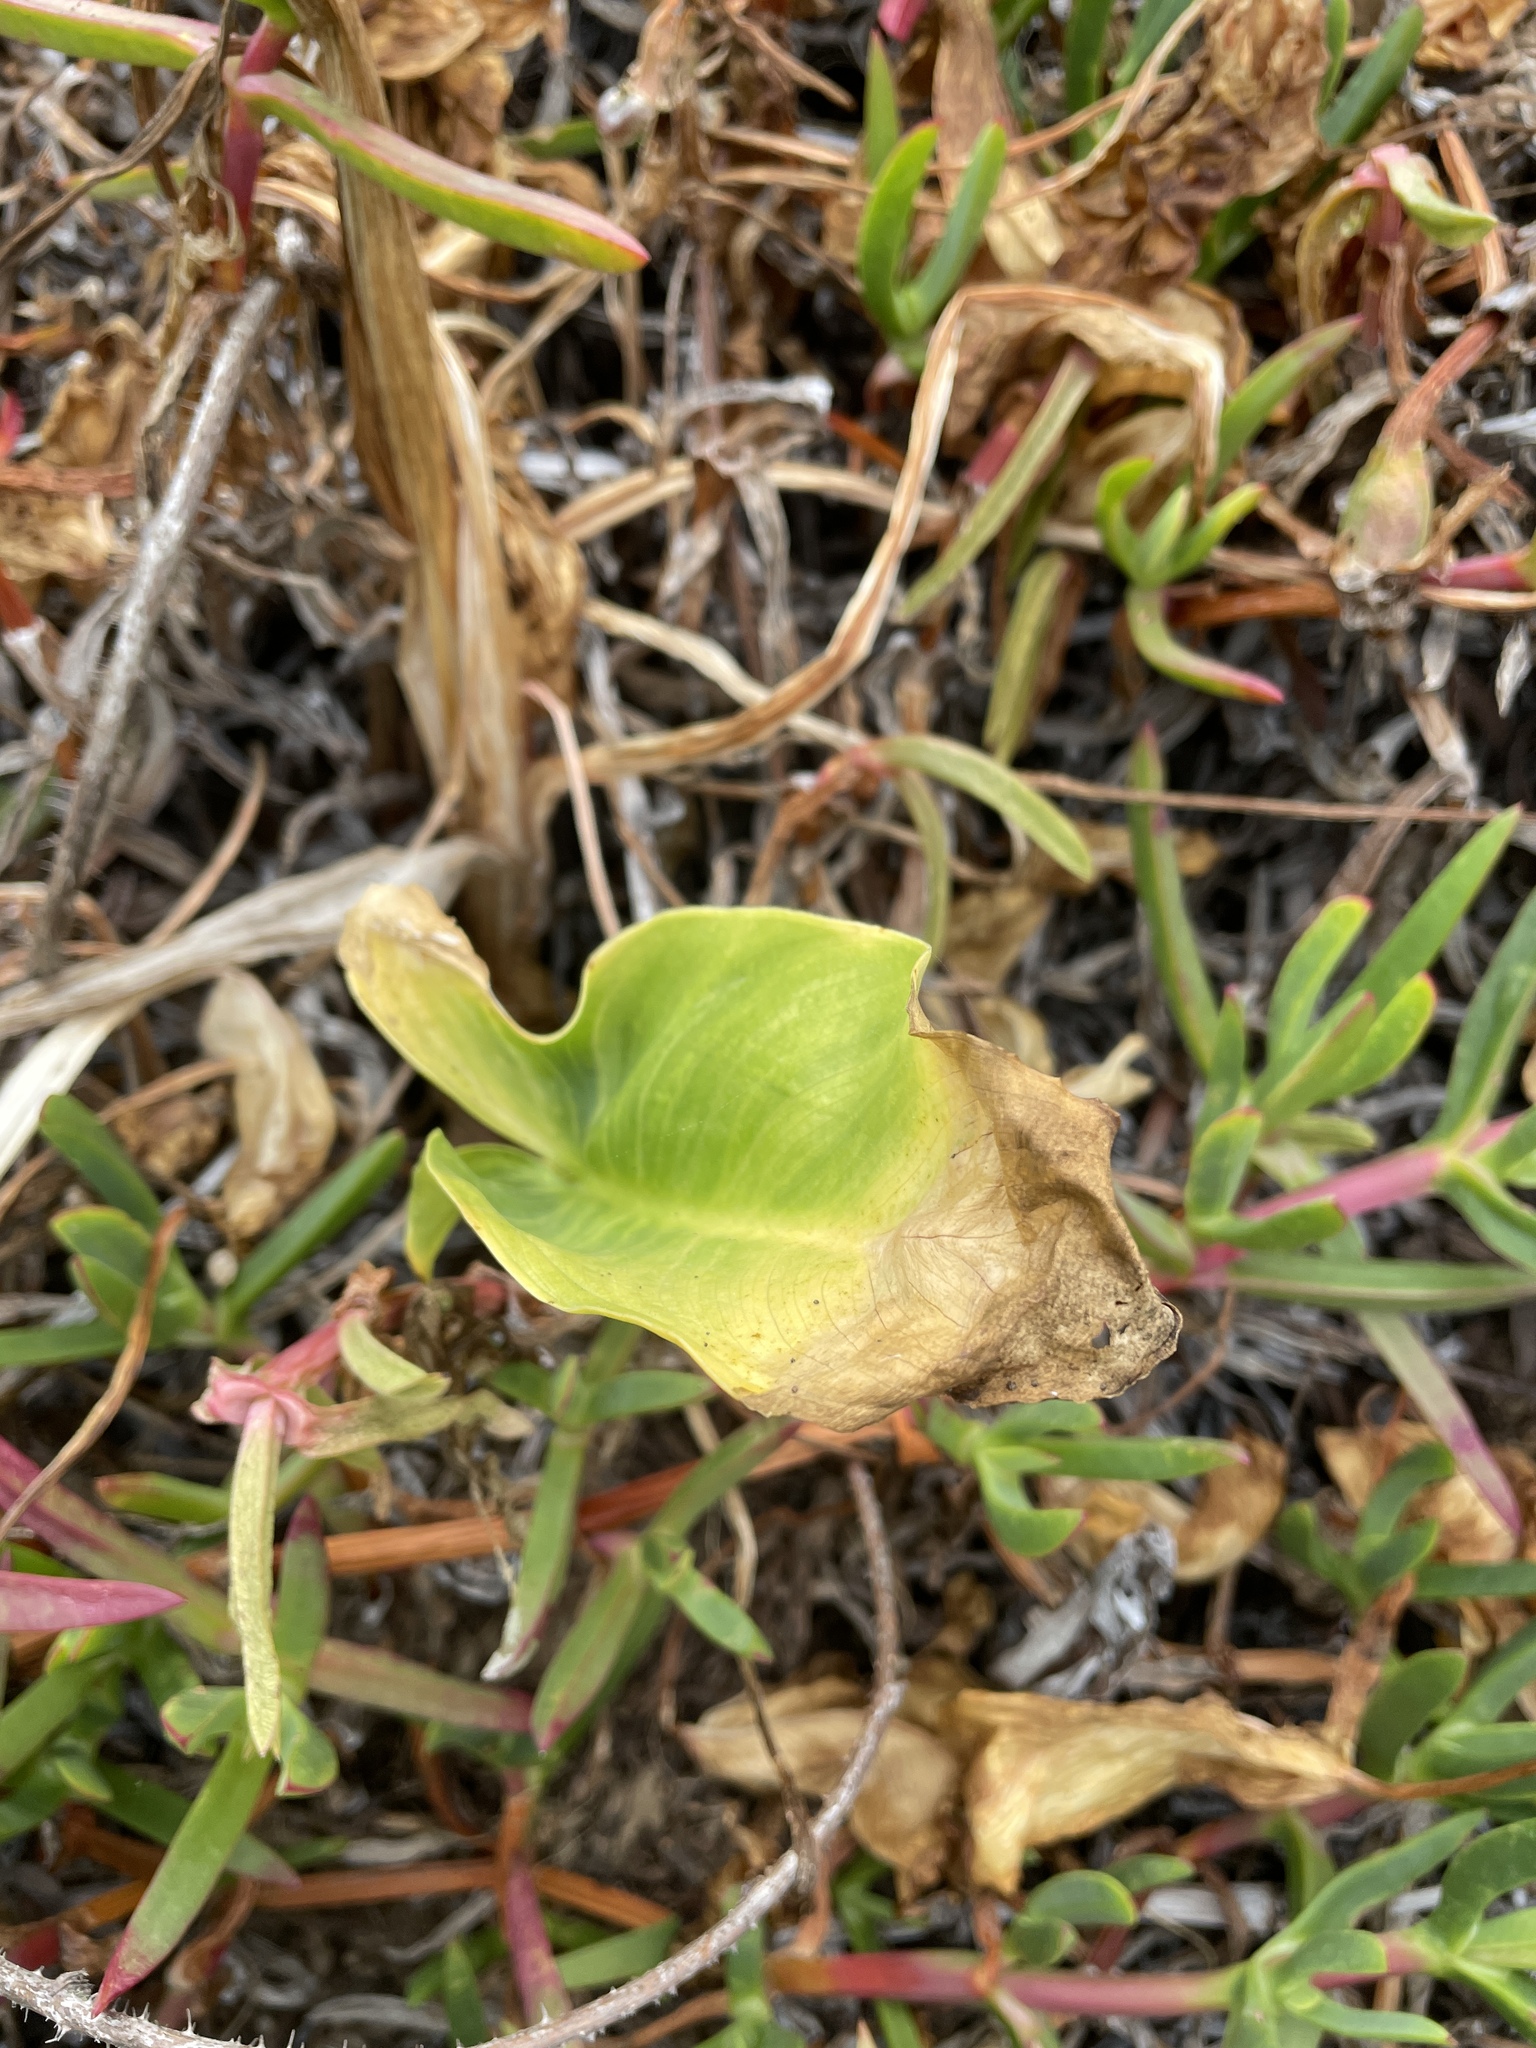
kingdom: Plantae
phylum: Tracheophyta
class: Liliopsida
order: Alismatales
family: Araceae
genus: Zantedeschia
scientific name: Zantedeschia aethiopica
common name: Altar-lily
